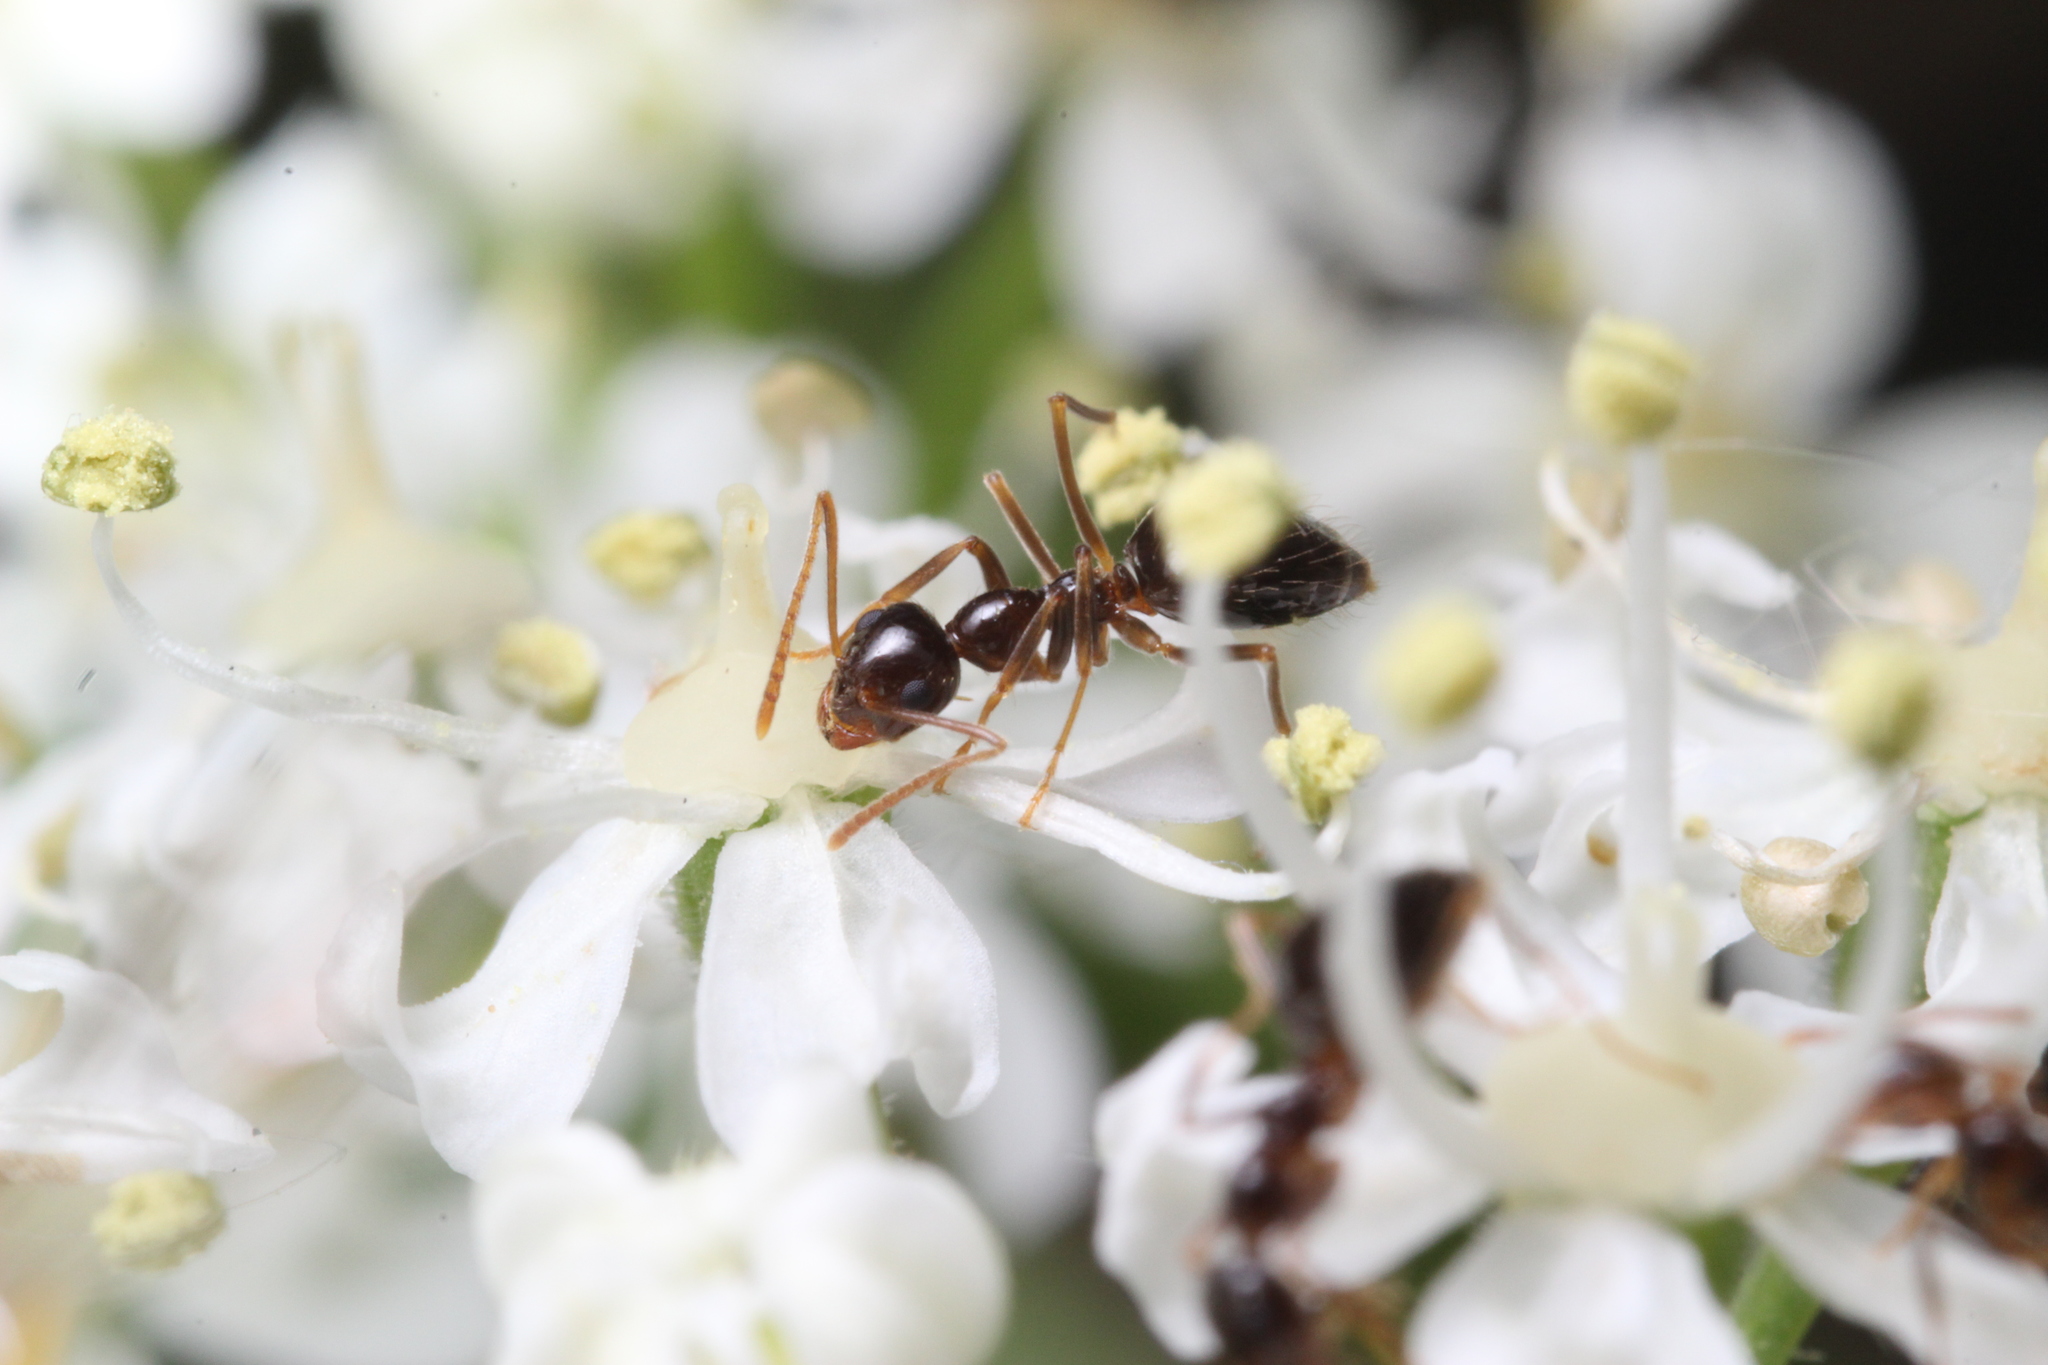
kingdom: Animalia
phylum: Arthropoda
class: Insecta
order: Hymenoptera
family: Formicidae
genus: Prenolepis
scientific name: Prenolepis imparis
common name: Small honey ant
